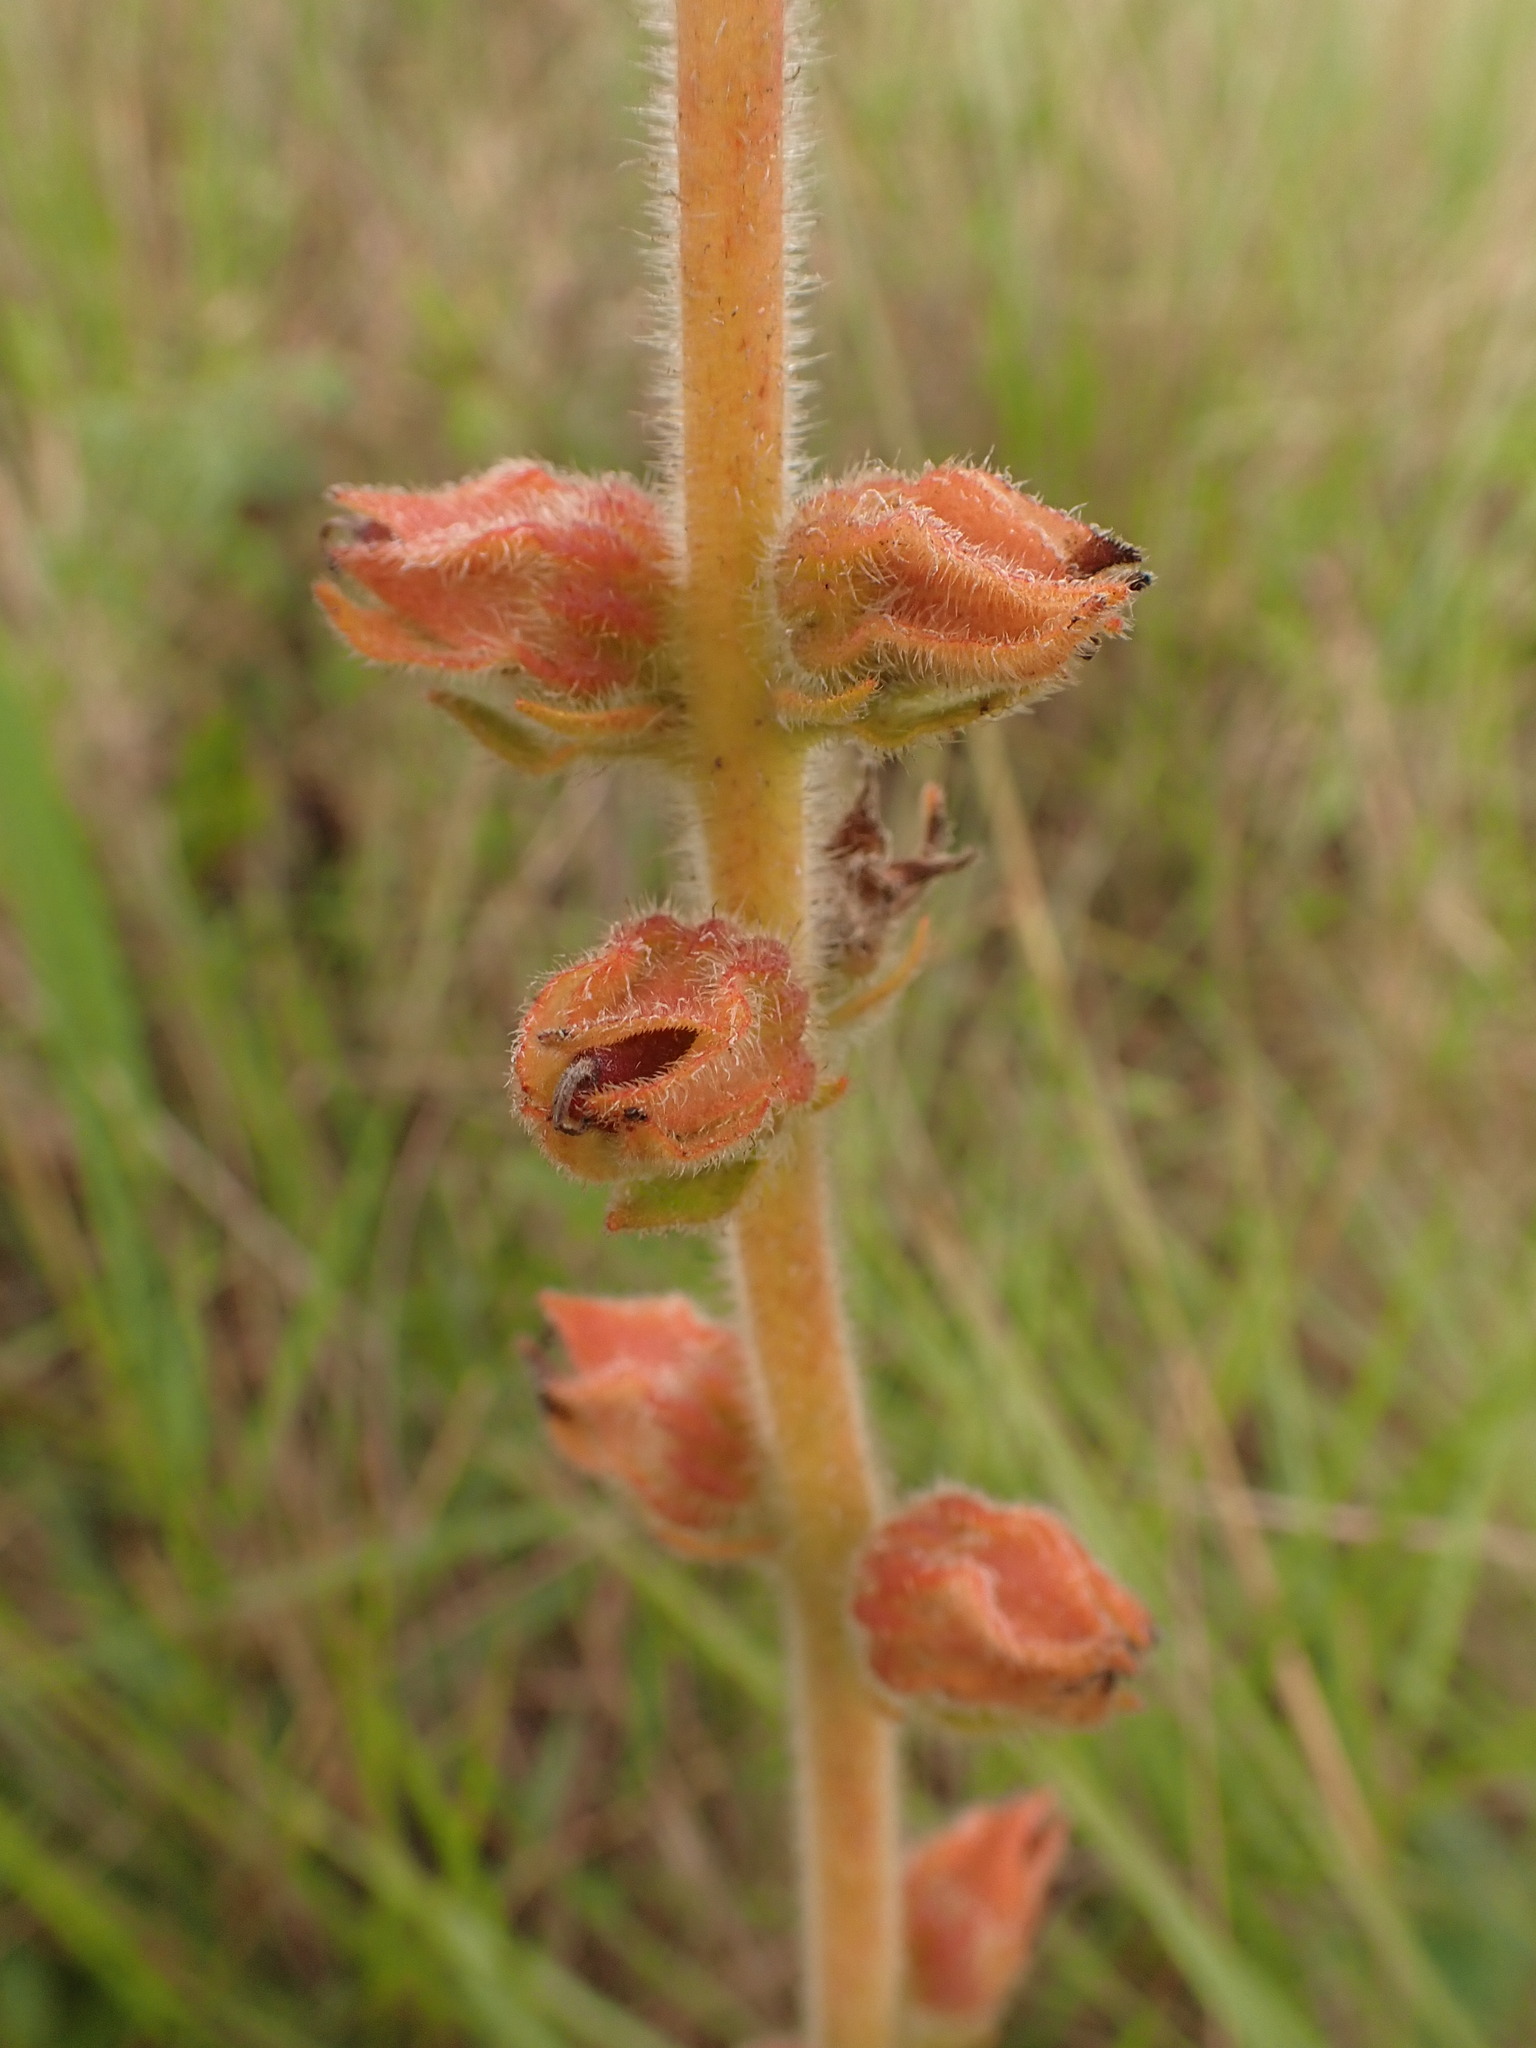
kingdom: Plantae
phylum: Tracheophyta
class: Magnoliopsida
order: Lamiales
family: Gesneriaceae
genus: Sinningia
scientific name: Sinningia allagophylla
